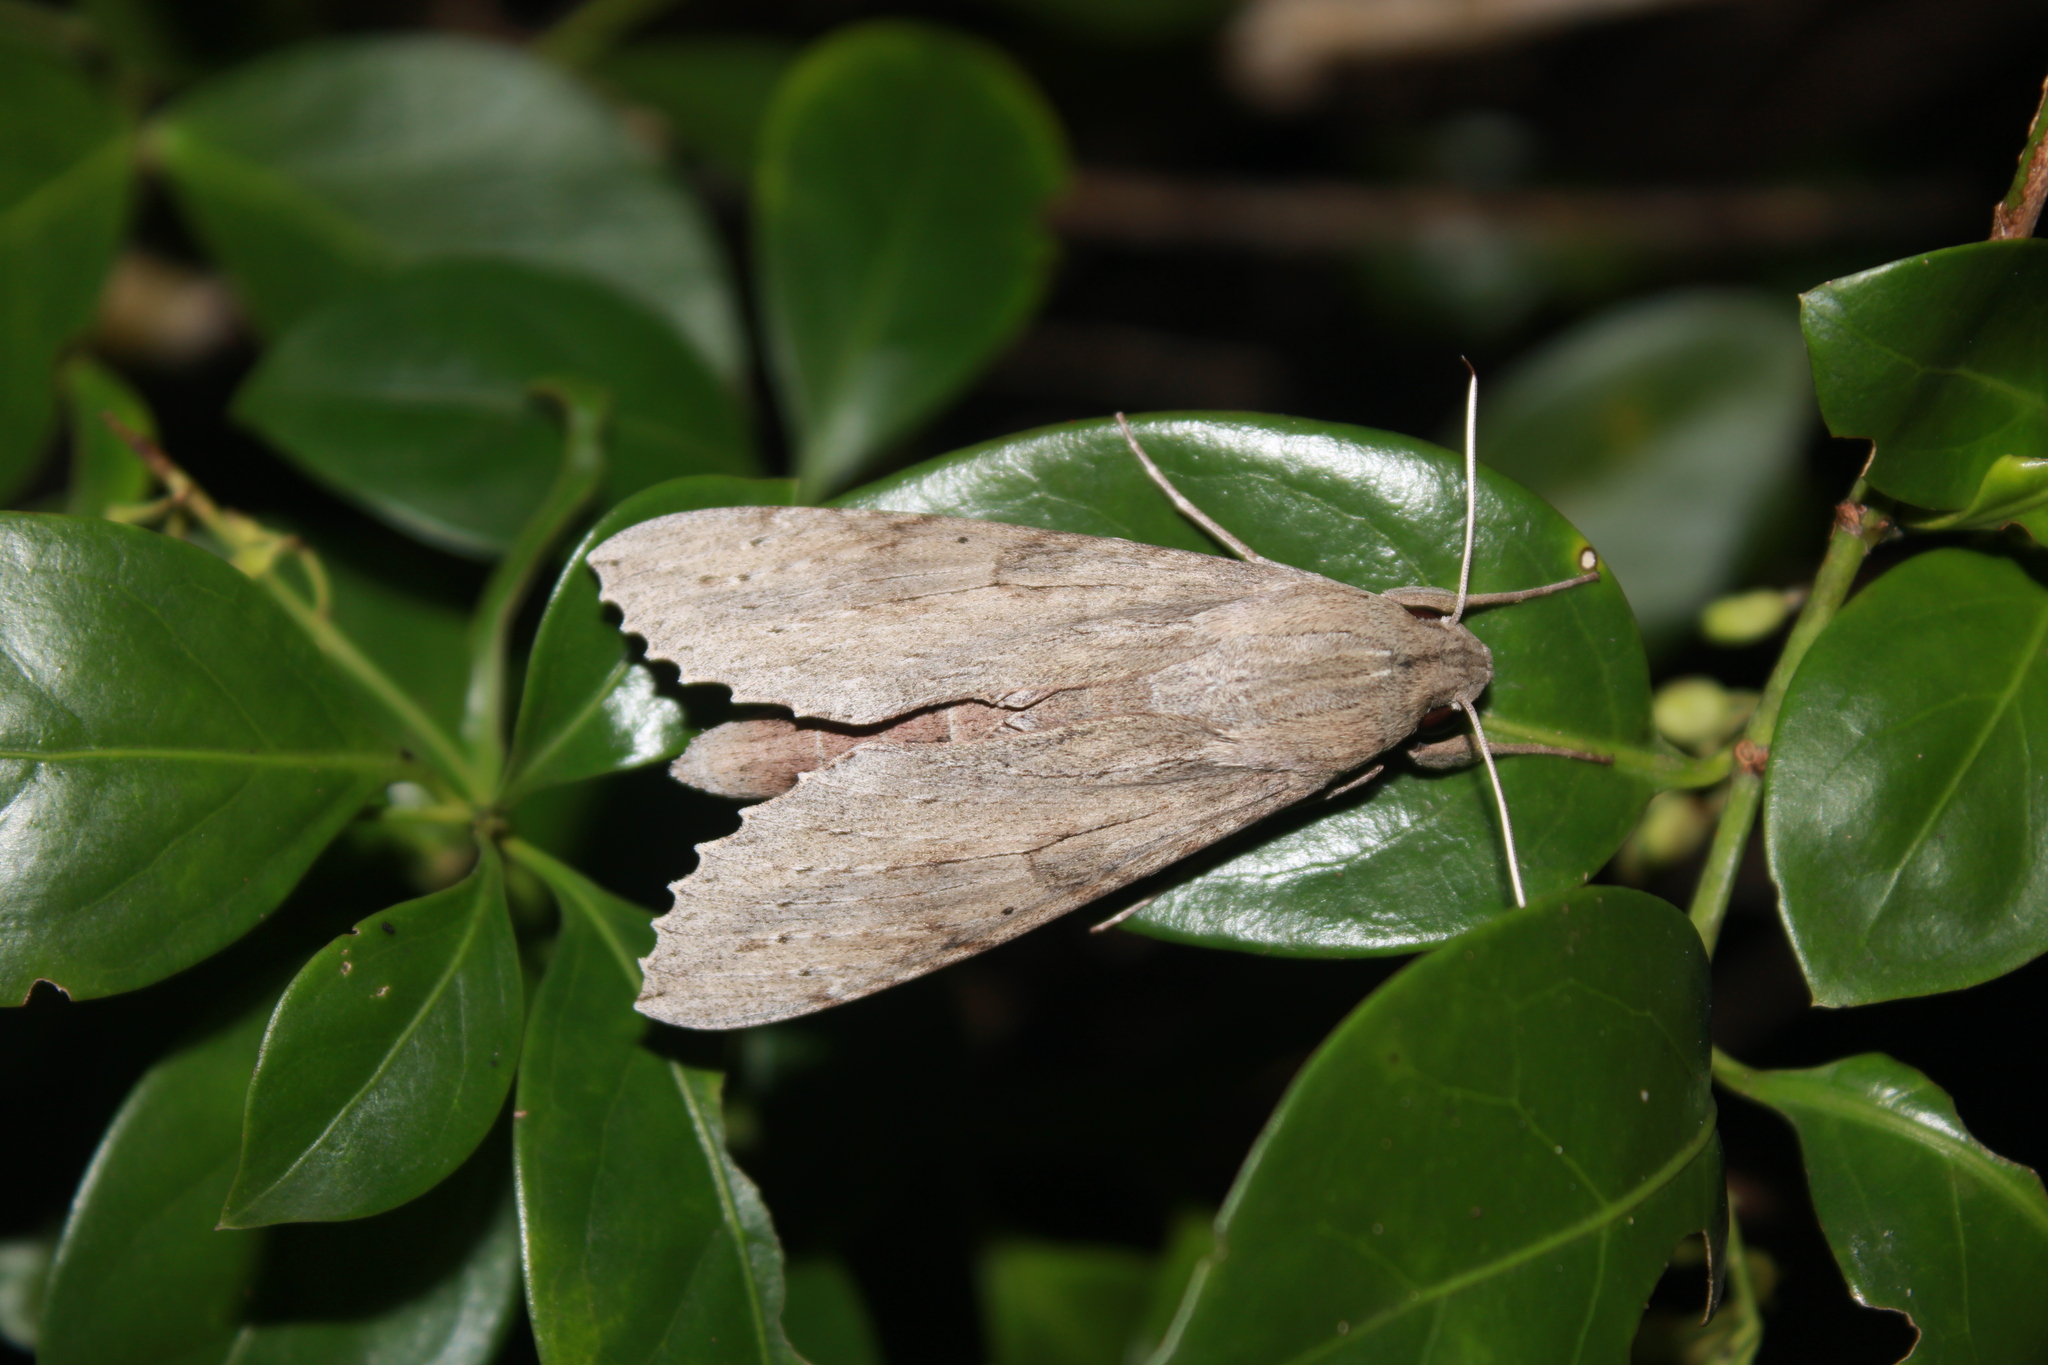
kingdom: Animalia
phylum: Arthropoda
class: Insecta
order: Lepidoptera
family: Sphingidae
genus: Erinnyis
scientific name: Erinnyis ello
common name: Ello sphinx
